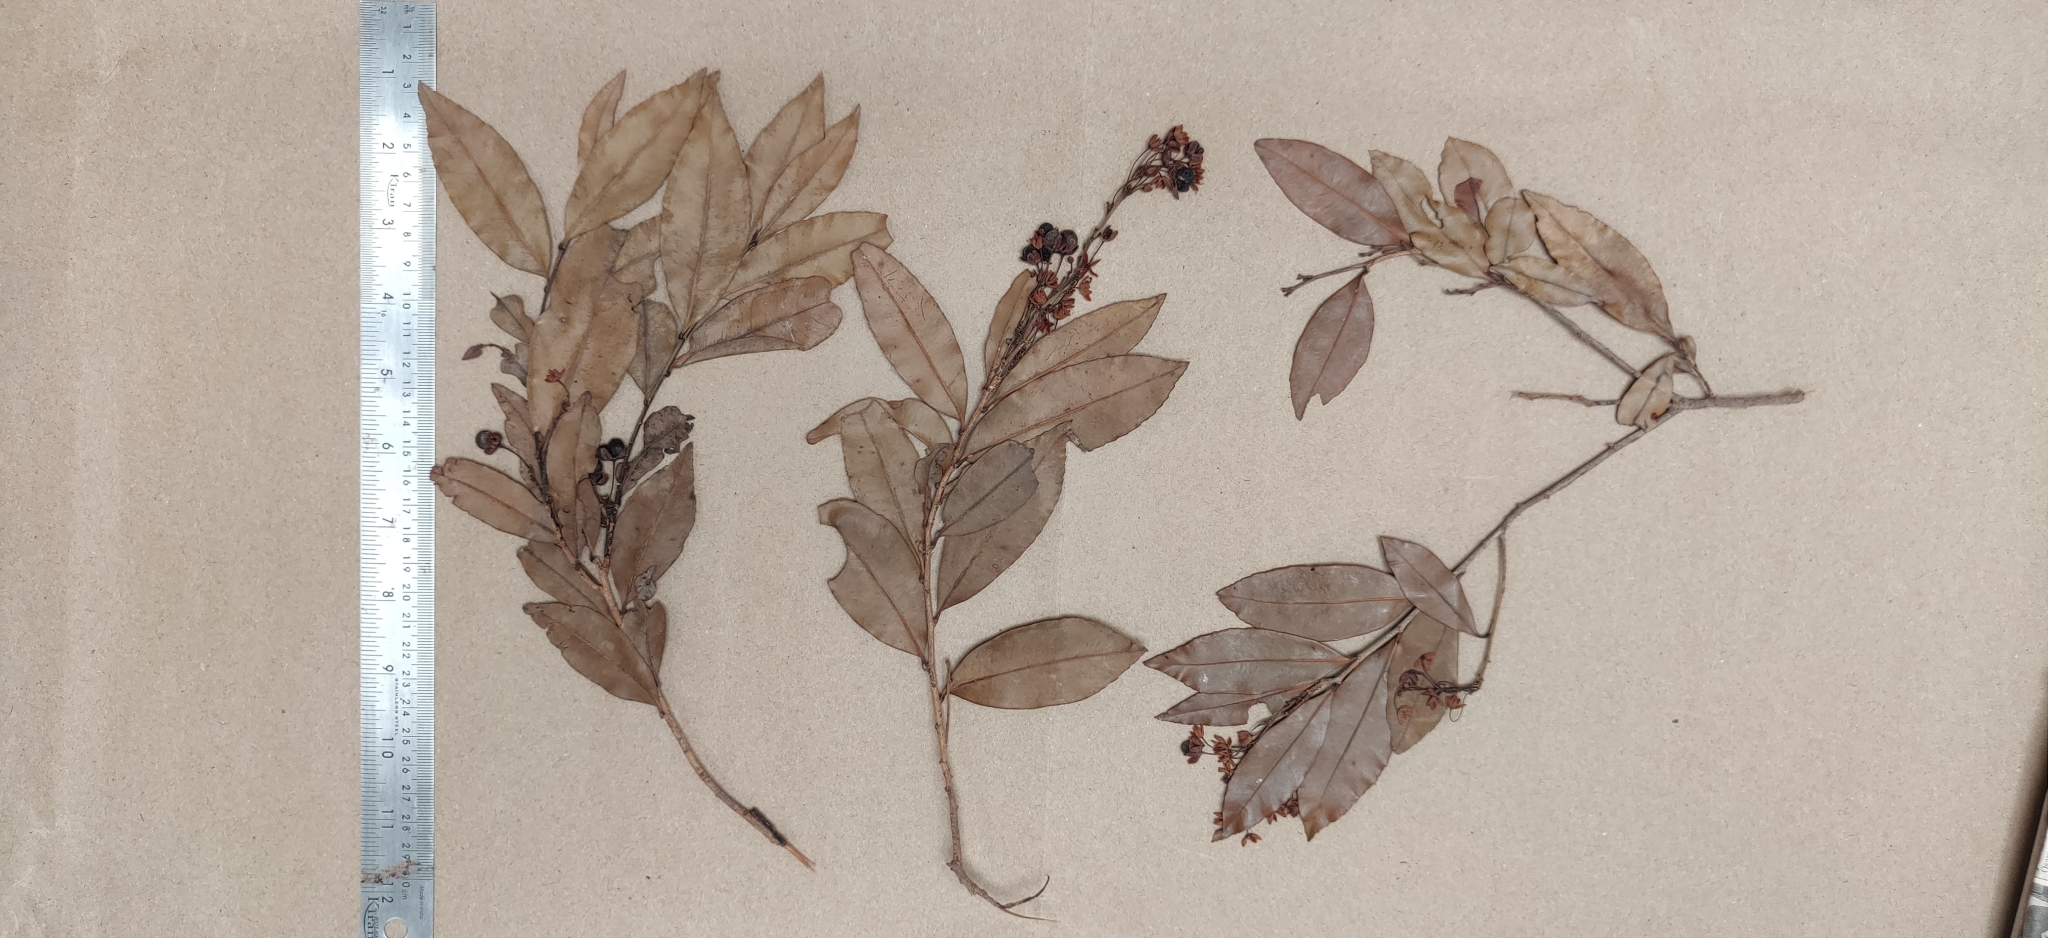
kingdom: Plantae
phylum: Tracheophyta
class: Magnoliopsida
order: Malpighiales
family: Ochnaceae
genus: Gomphia
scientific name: Gomphia serrata
